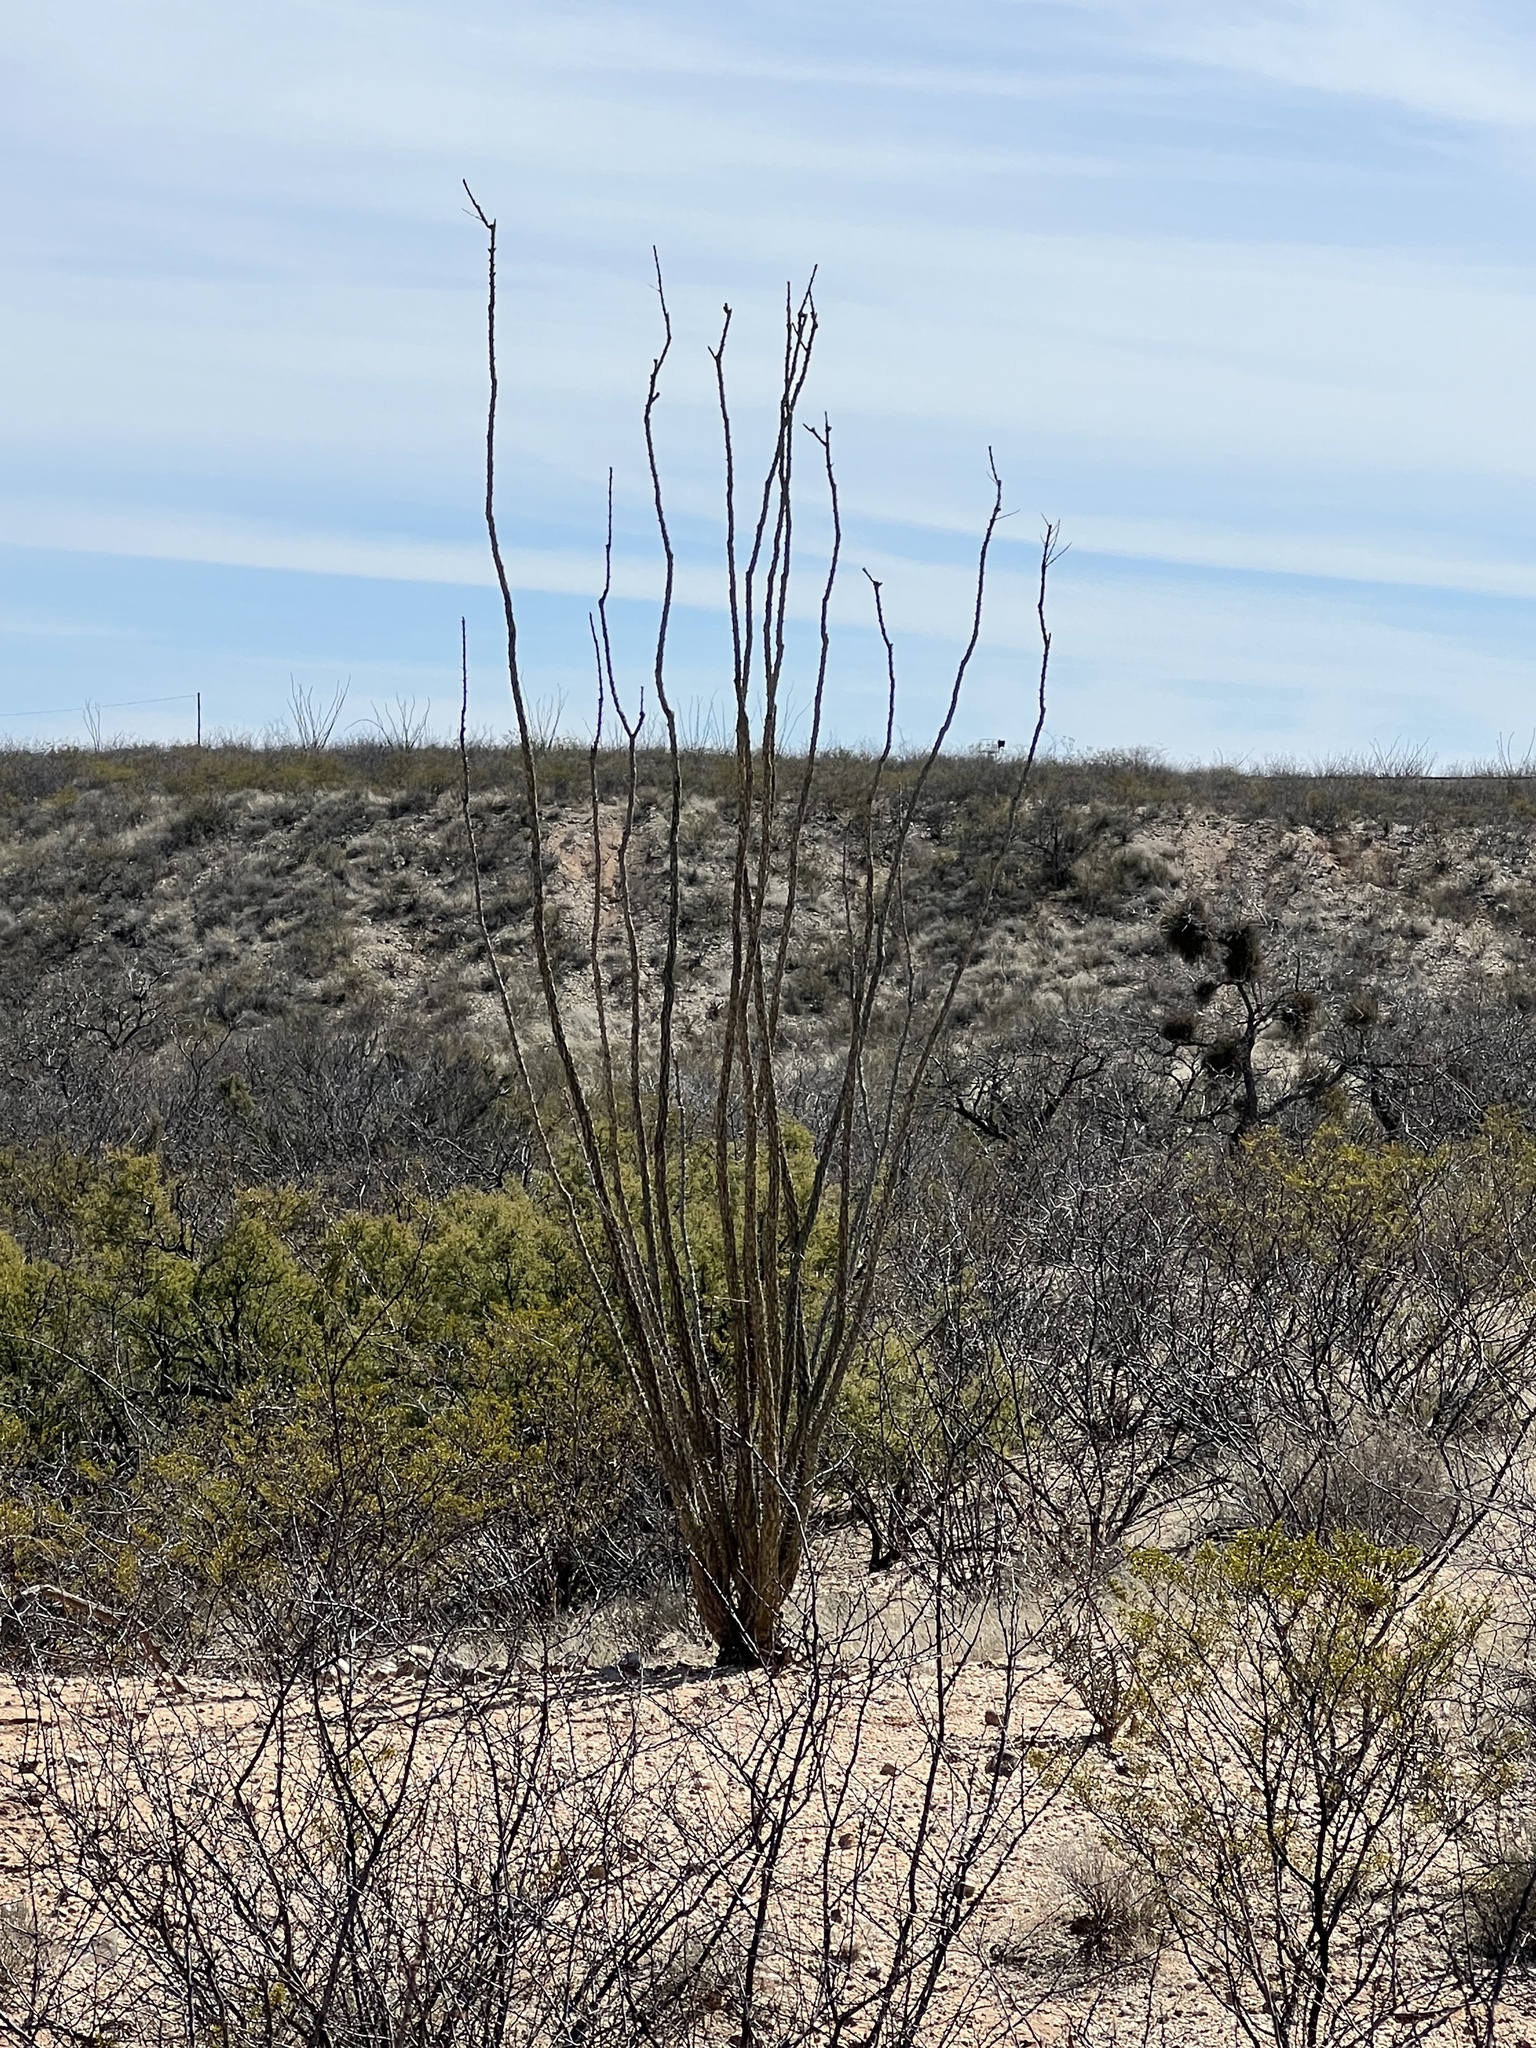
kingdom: Plantae
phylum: Tracheophyta
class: Magnoliopsida
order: Ericales
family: Fouquieriaceae
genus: Fouquieria
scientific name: Fouquieria splendens
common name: Vine-cactus
